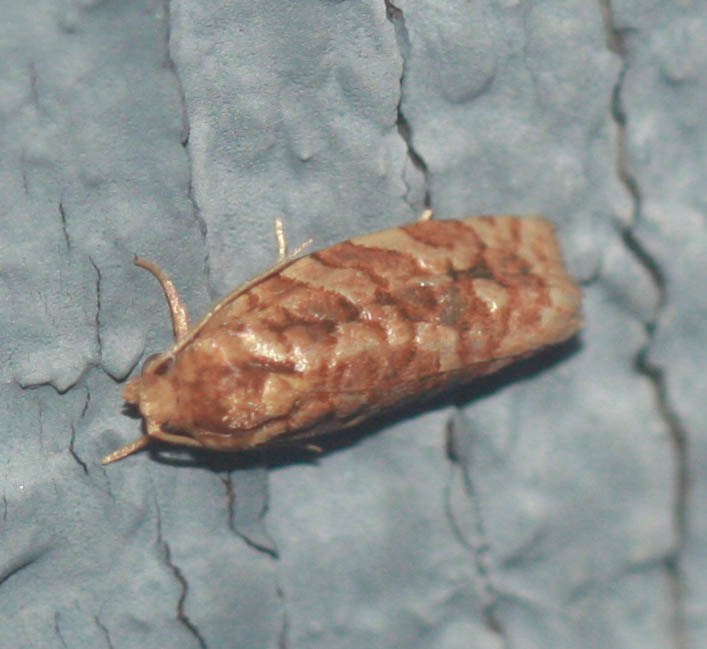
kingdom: Animalia
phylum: Arthropoda
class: Insecta
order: Lepidoptera
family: Tortricidae
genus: Choristoneura
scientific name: Choristoneura houstonana
